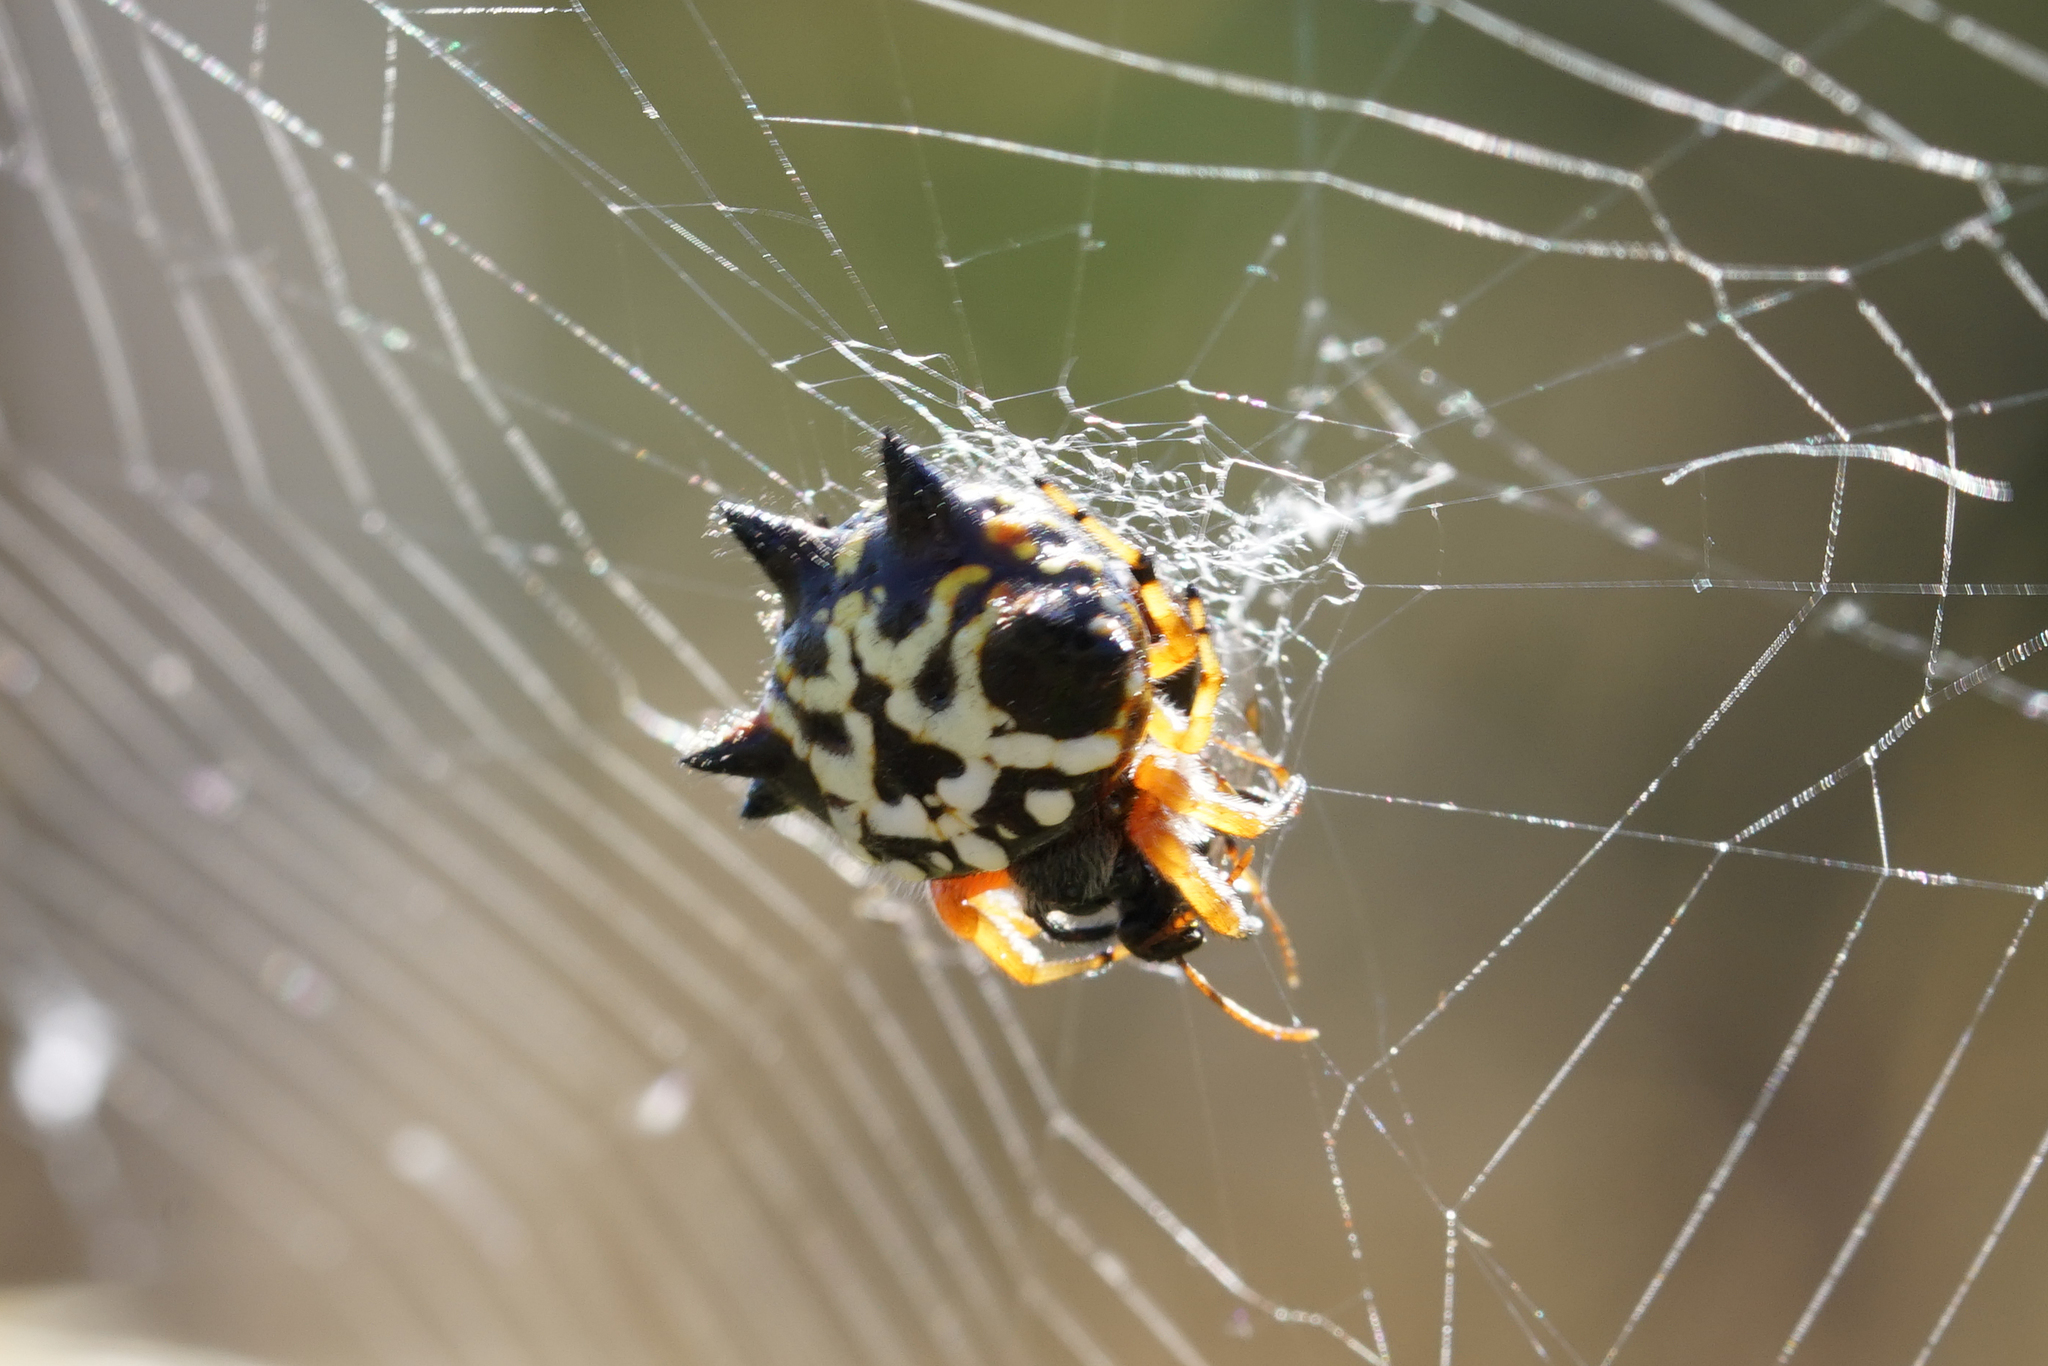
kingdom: Animalia
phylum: Arthropoda
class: Arachnida
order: Araneae
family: Araneidae
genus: Austracantha
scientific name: Austracantha minax
